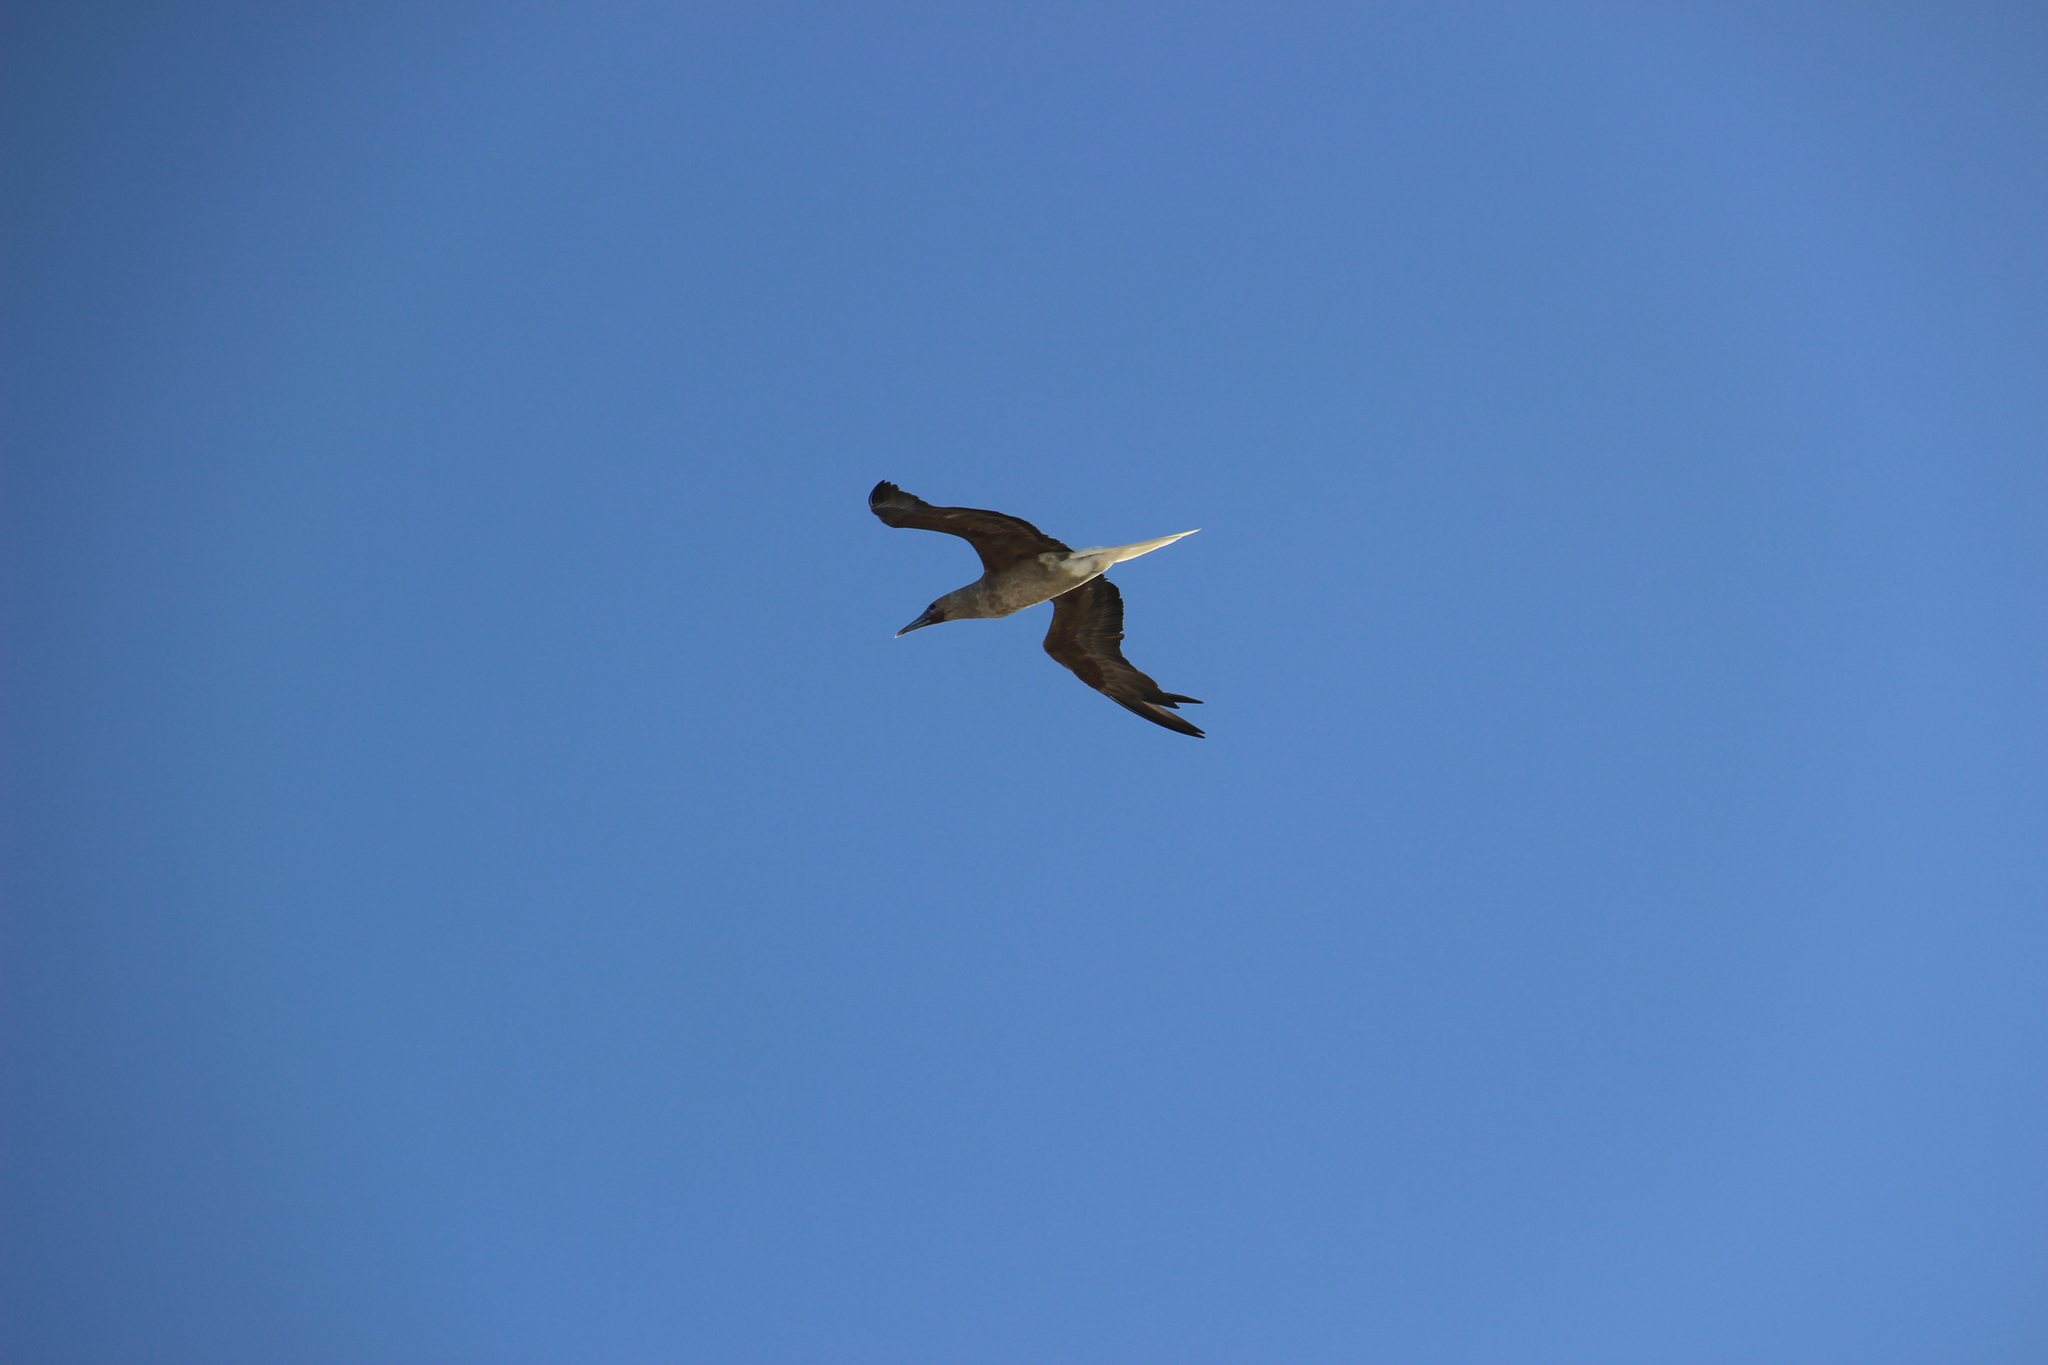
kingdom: Animalia
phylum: Chordata
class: Aves
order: Suliformes
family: Sulidae
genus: Sula
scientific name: Sula sula
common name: Red-footed booby
